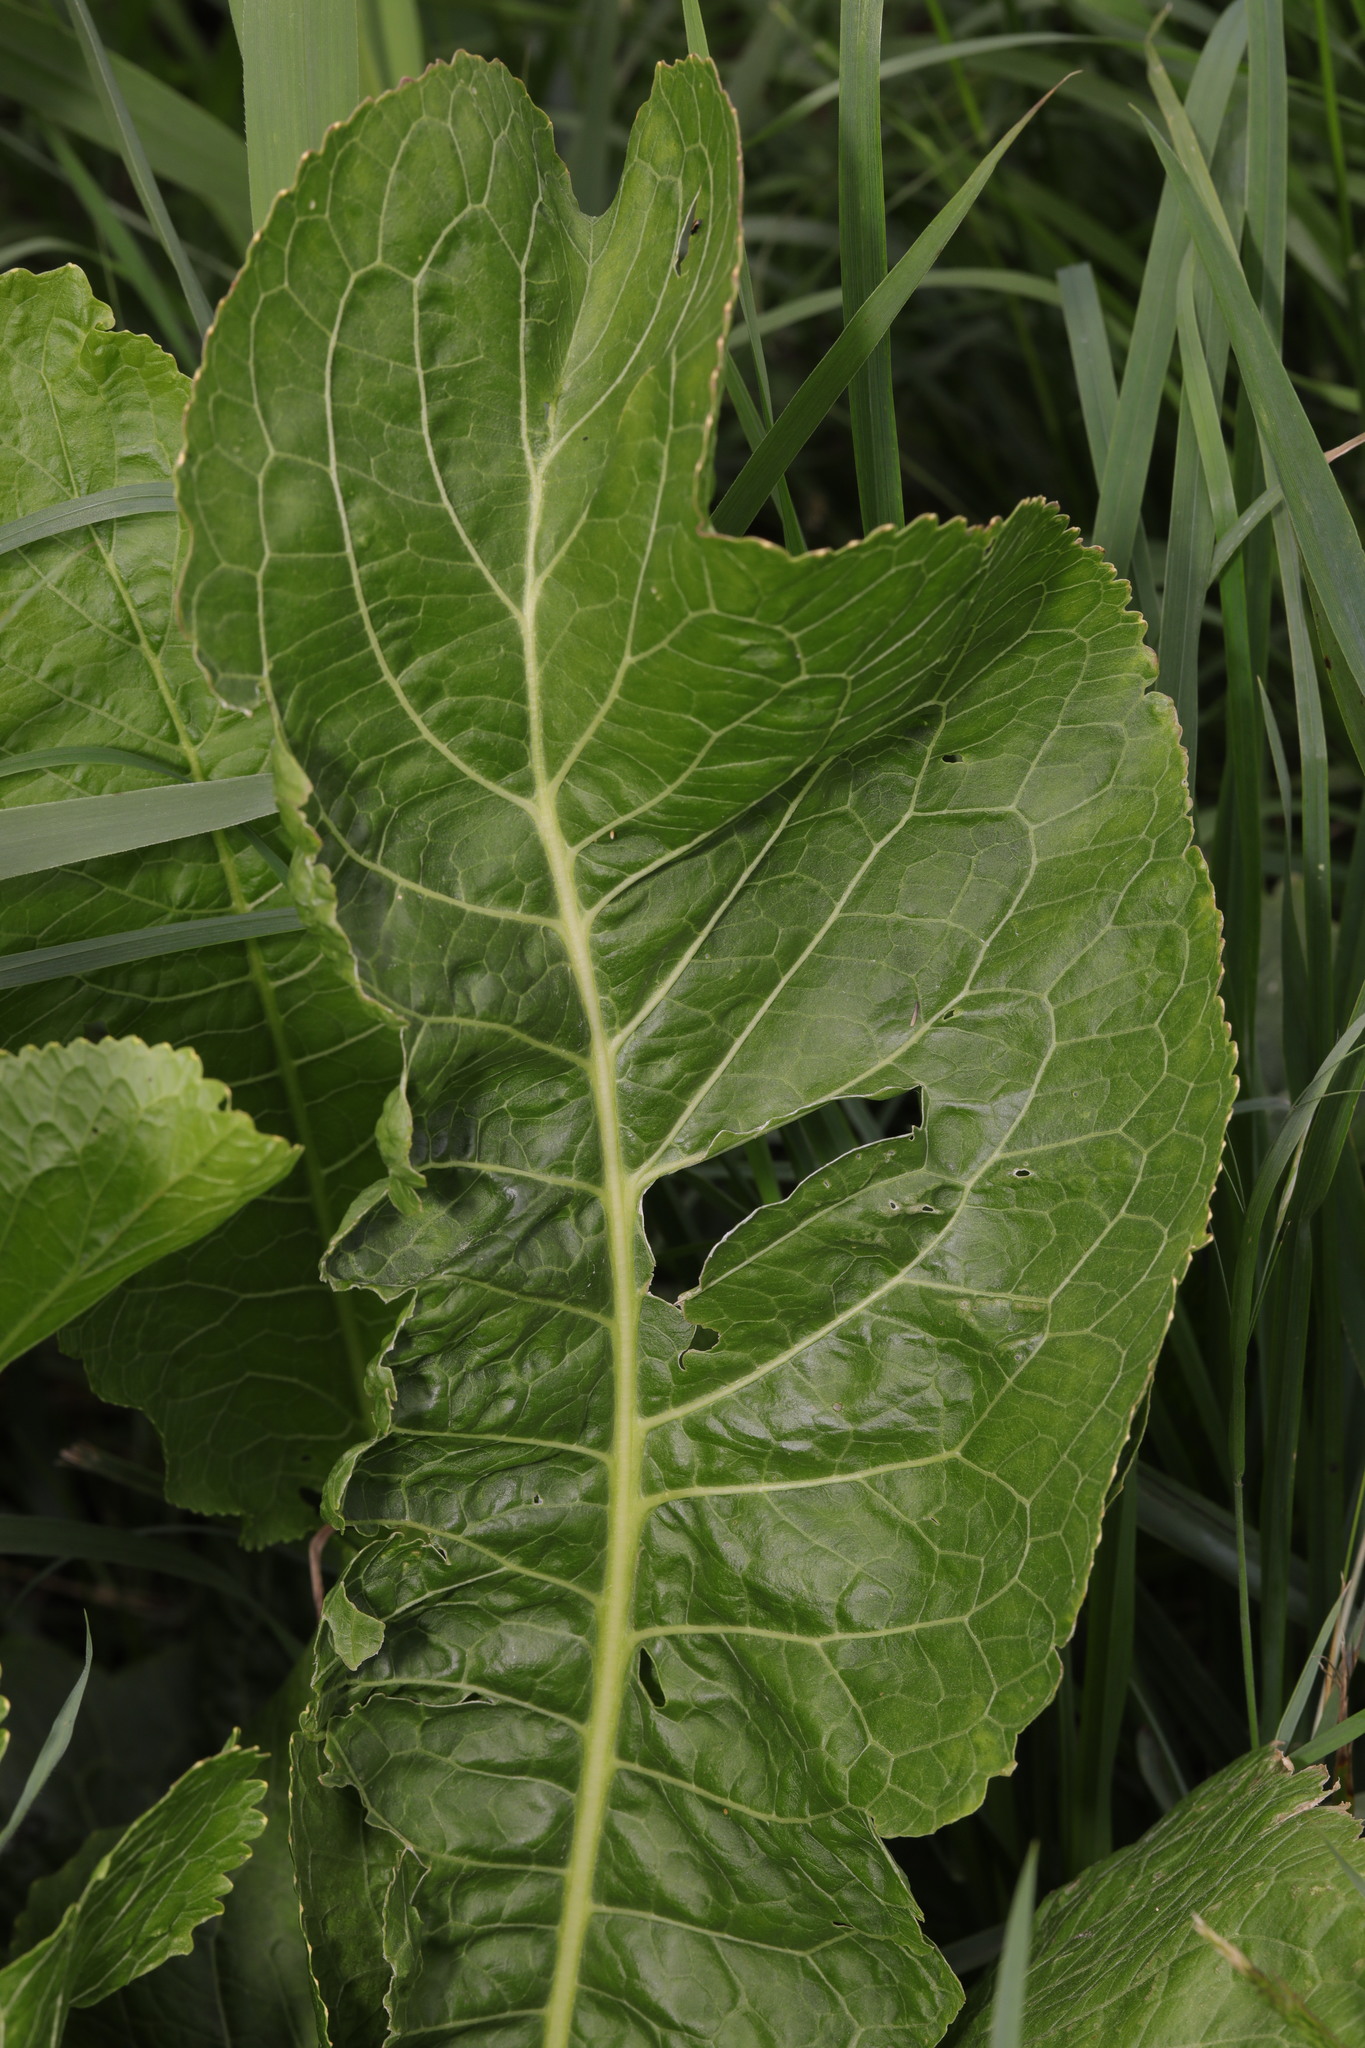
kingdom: Plantae
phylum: Tracheophyta
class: Magnoliopsida
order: Brassicales
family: Brassicaceae
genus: Armoracia
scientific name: Armoracia rusticana
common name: Horseradish
